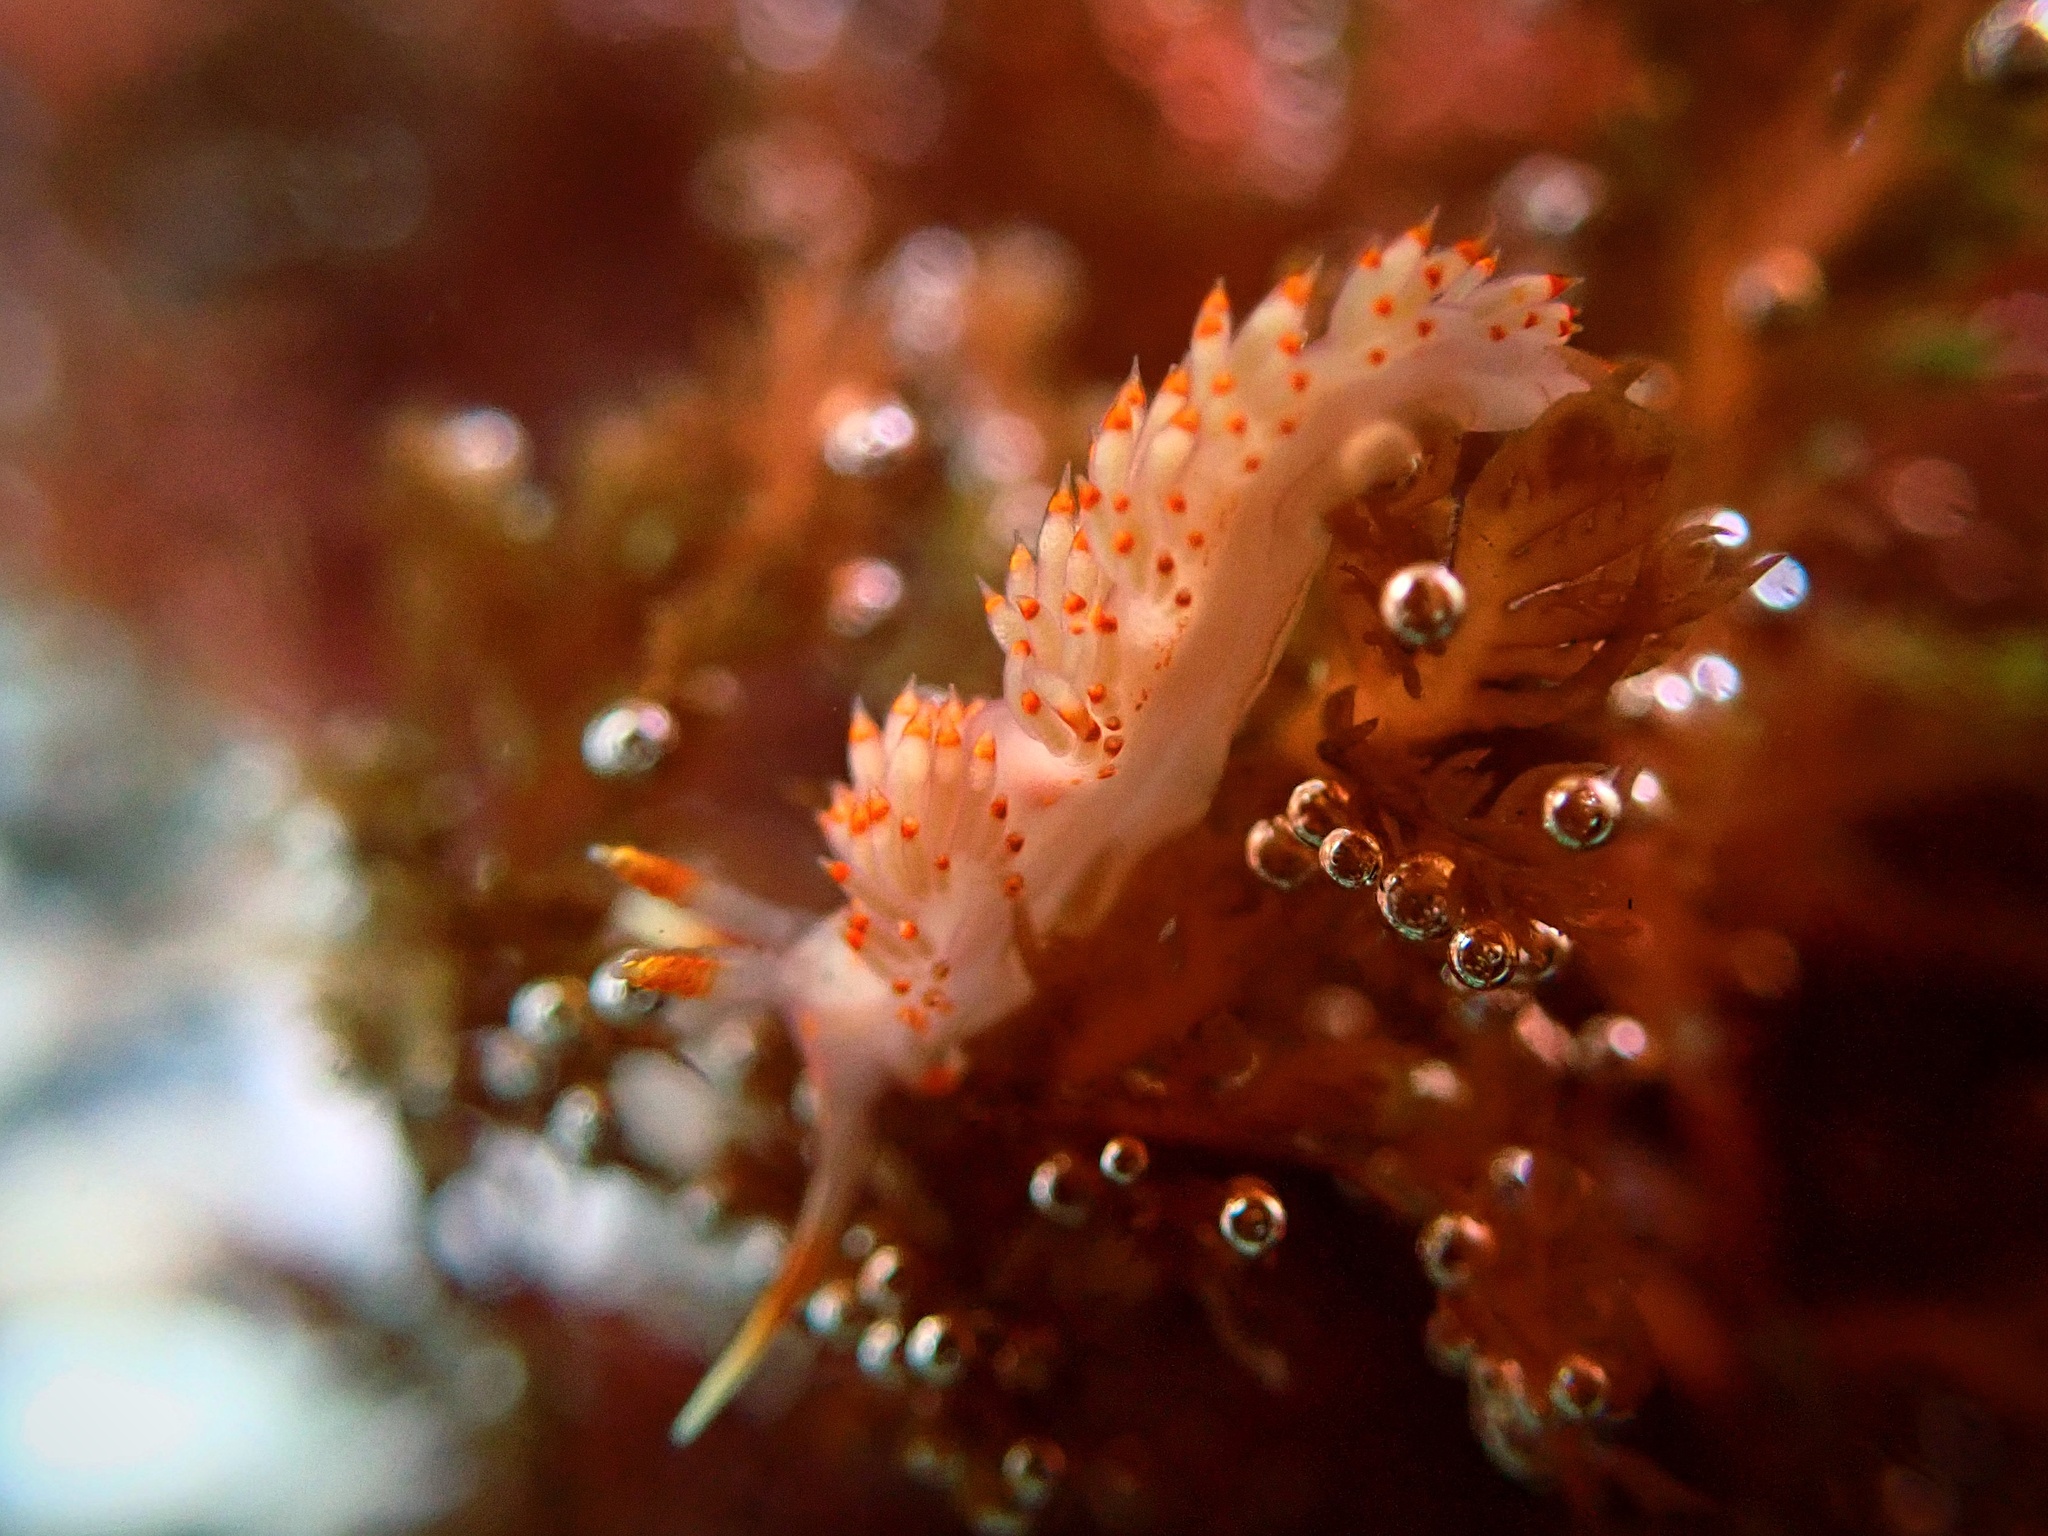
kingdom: Animalia
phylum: Mollusca
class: Gastropoda
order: Nudibranchia
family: Facelinidae
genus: Austraeolis
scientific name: Austraeolis stearnsi
